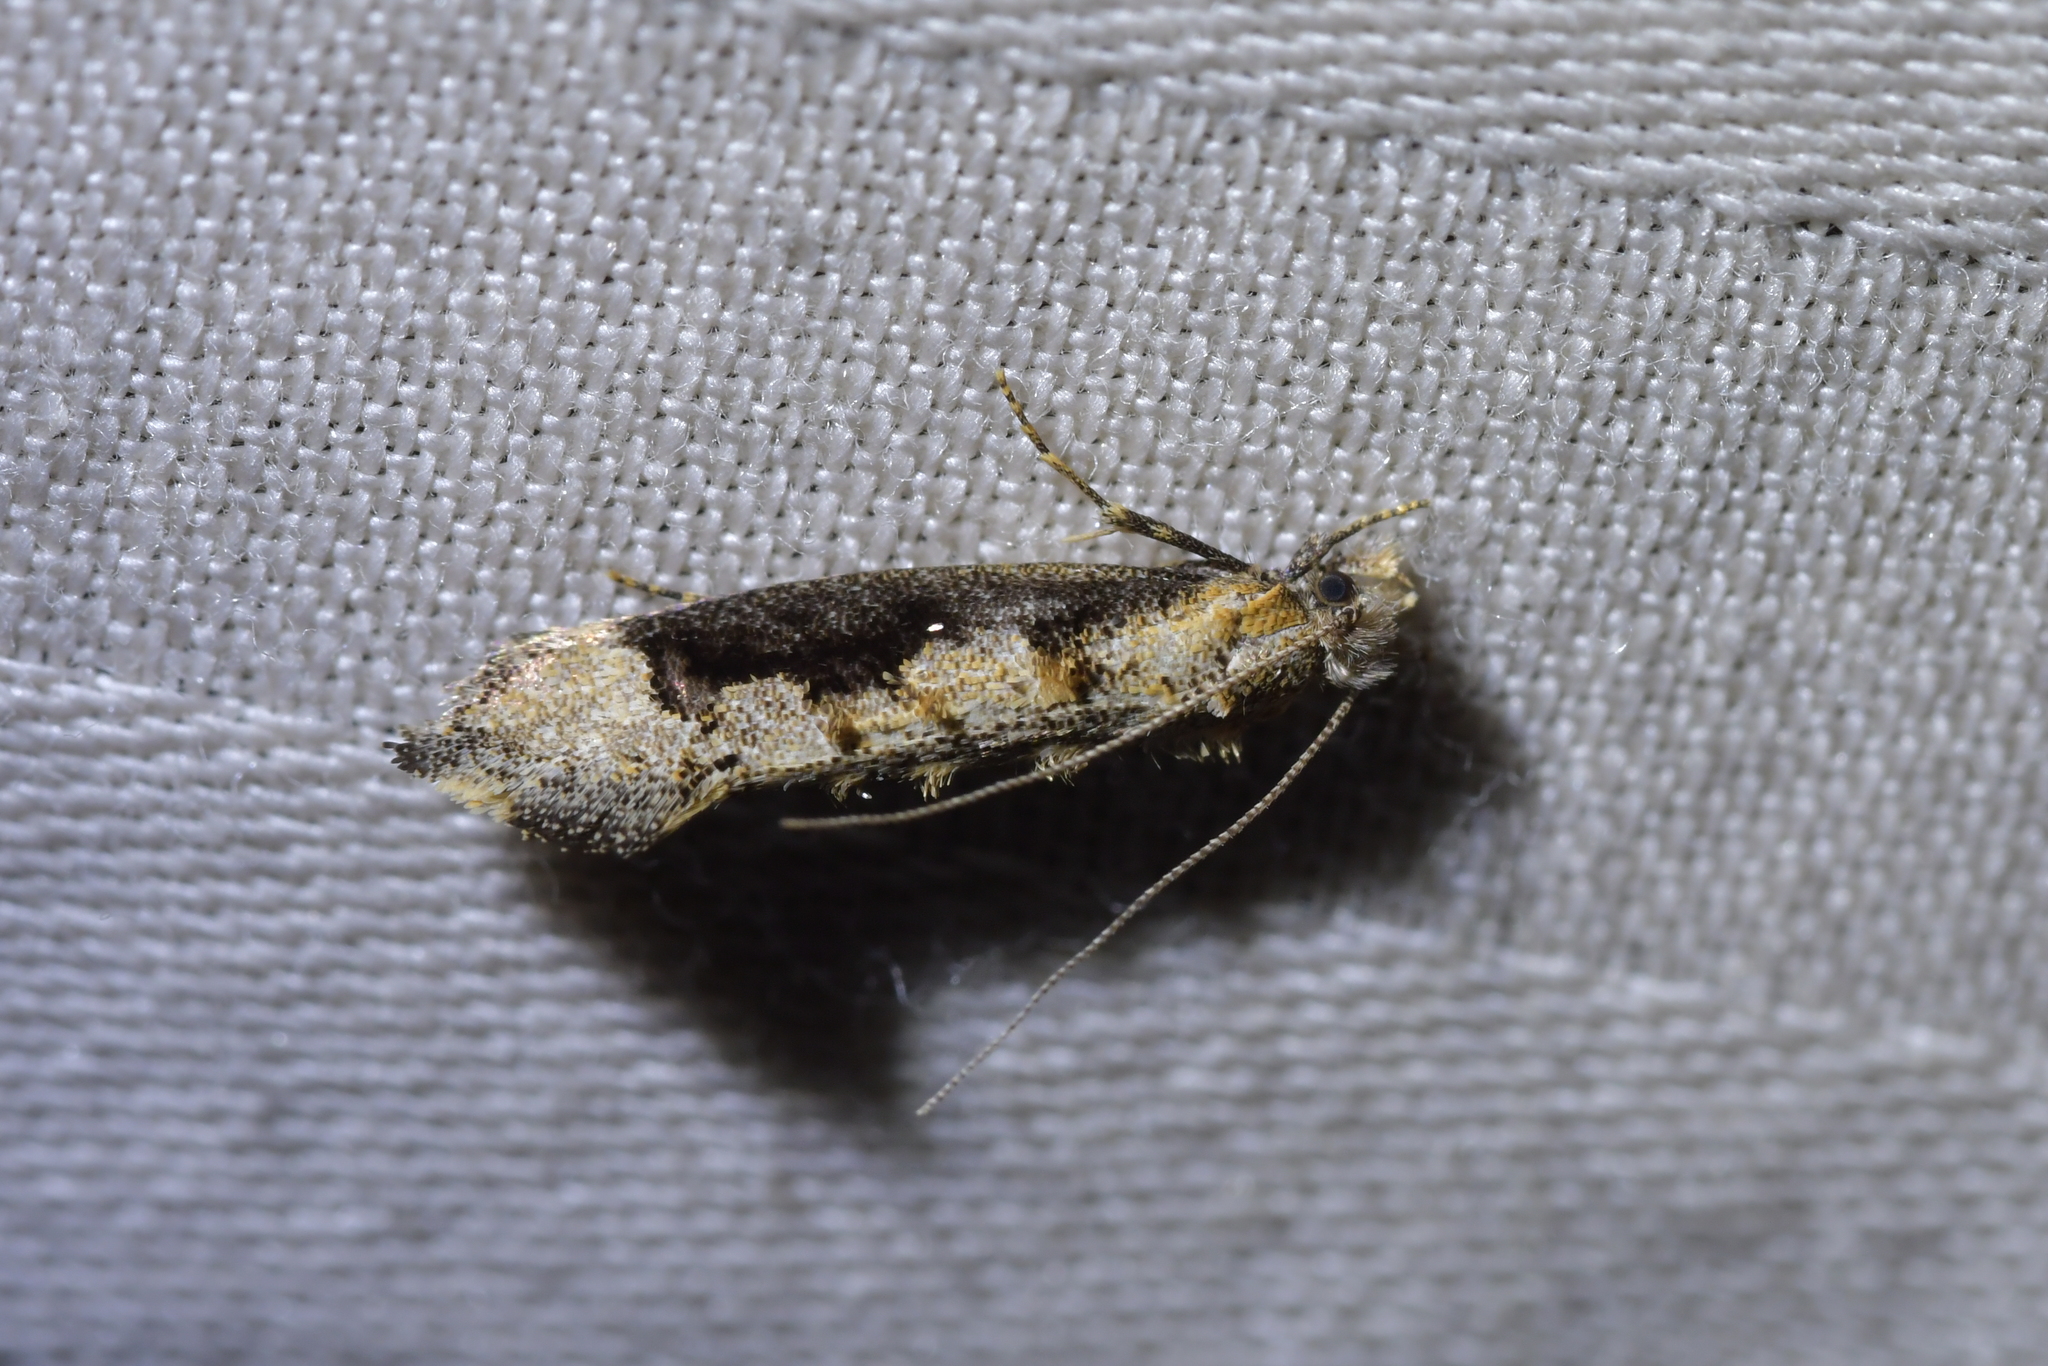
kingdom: Animalia
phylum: Arthropoda
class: Insecta
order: Lepidoptera
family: Tineidae
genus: Trithamnora
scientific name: Trithamnora certella
